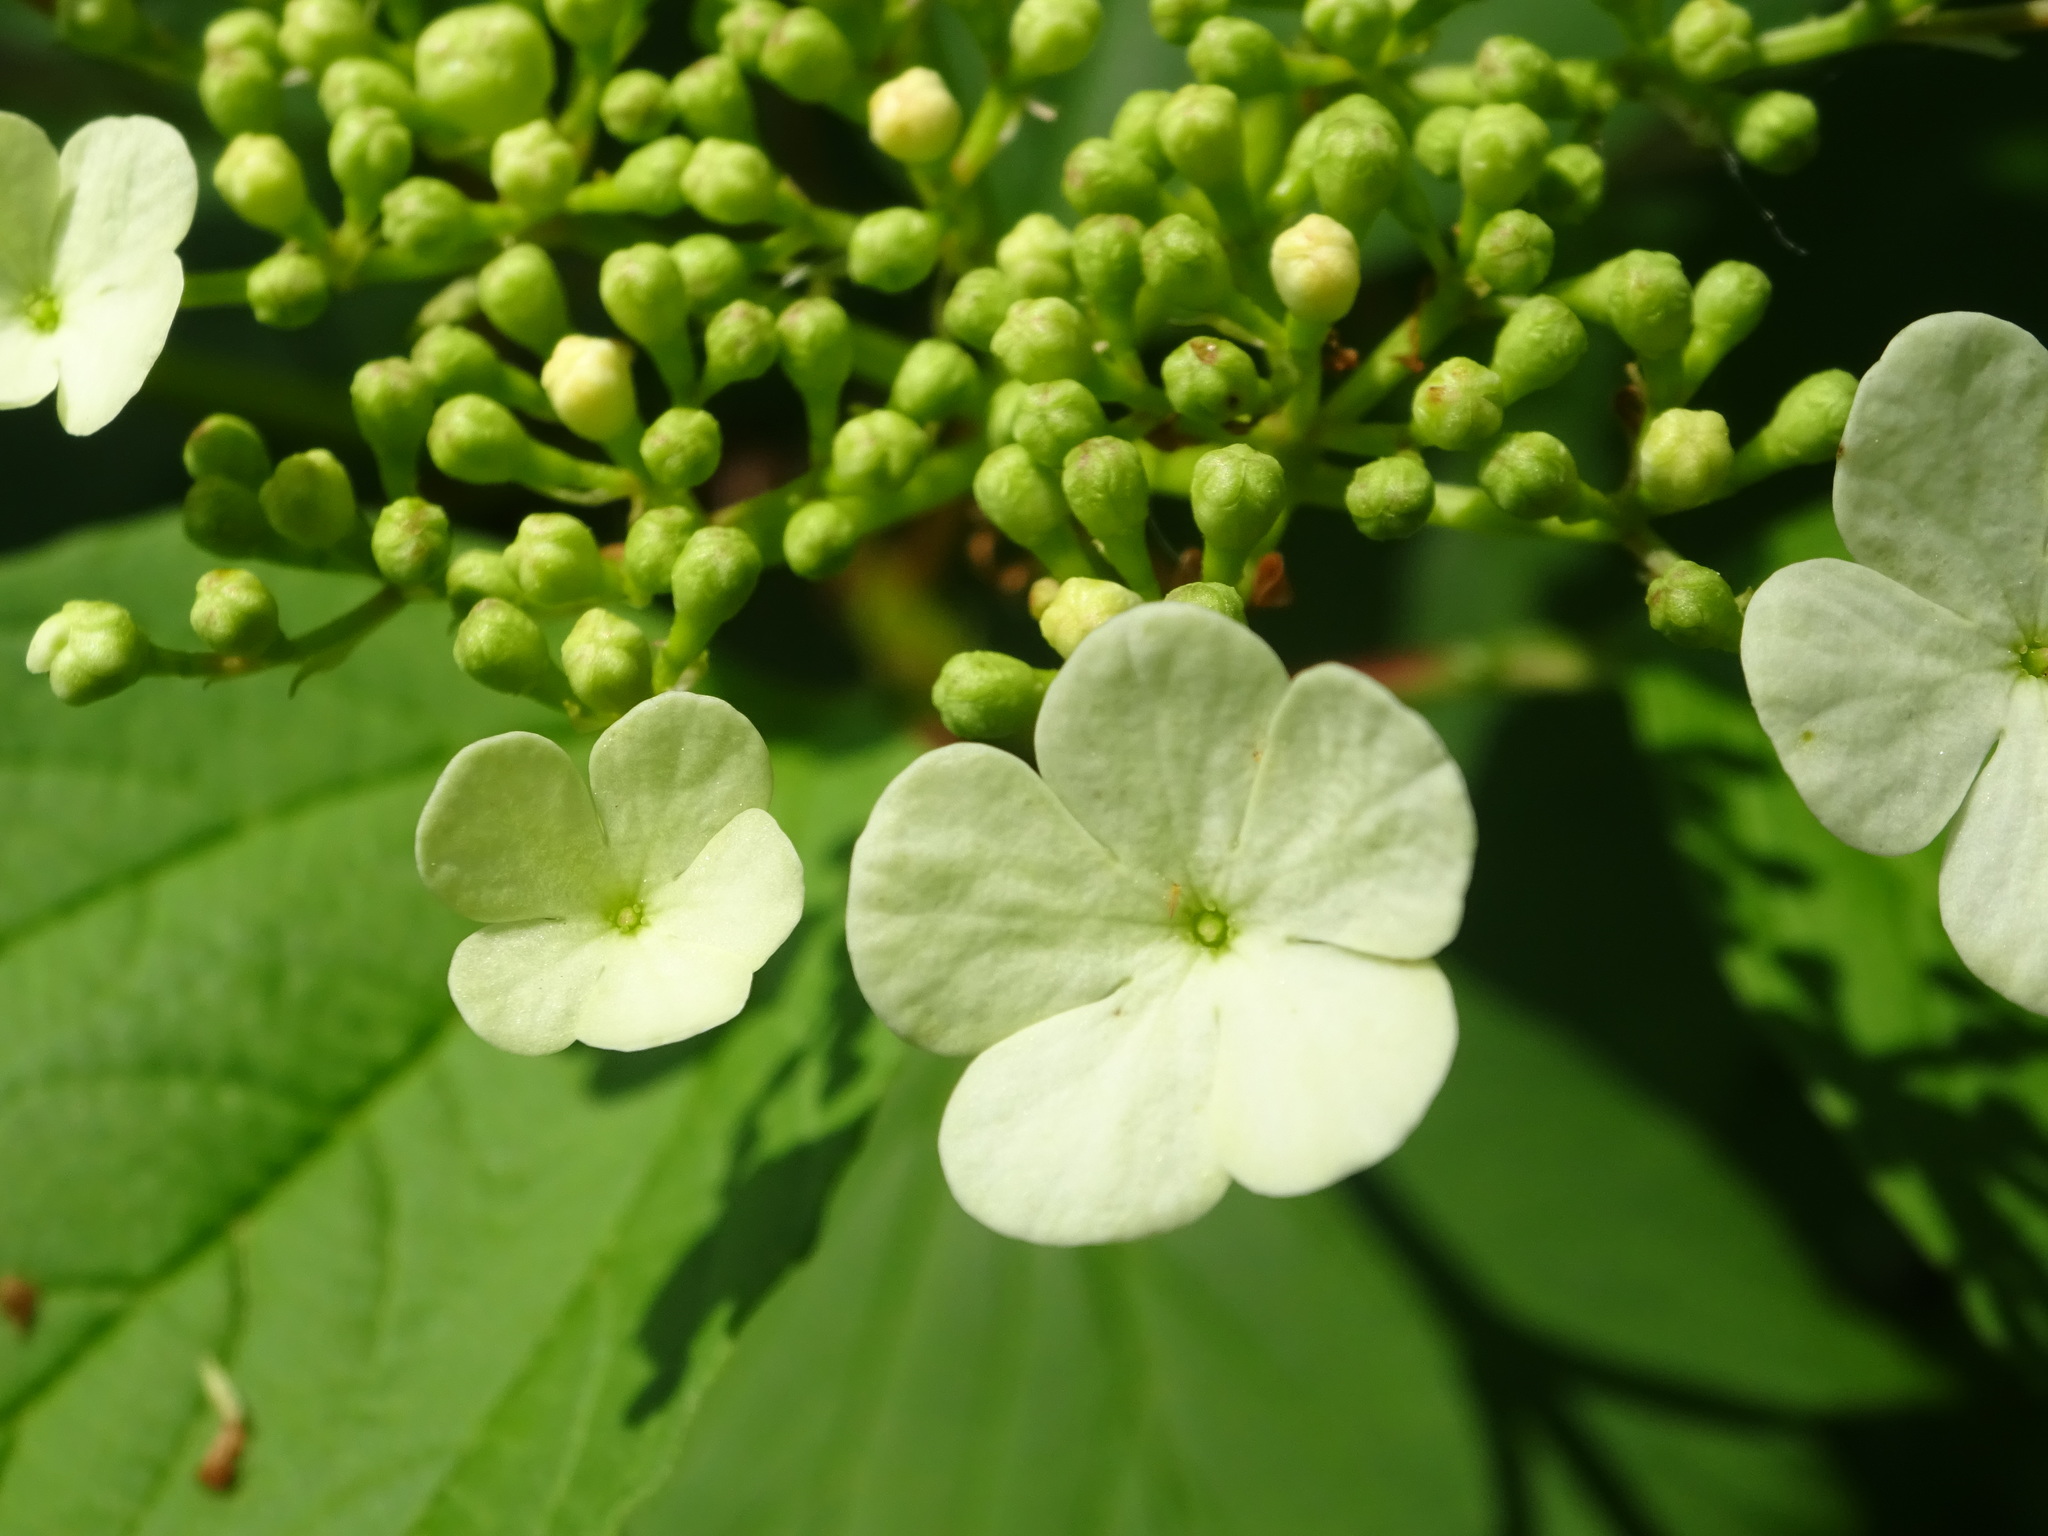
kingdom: Plantae
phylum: Tracheophyta
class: Magnoliopsida
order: Dipsacales
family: Viburnaceae
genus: Viburnum
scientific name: Viburnum opulus
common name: Guelder-rose
